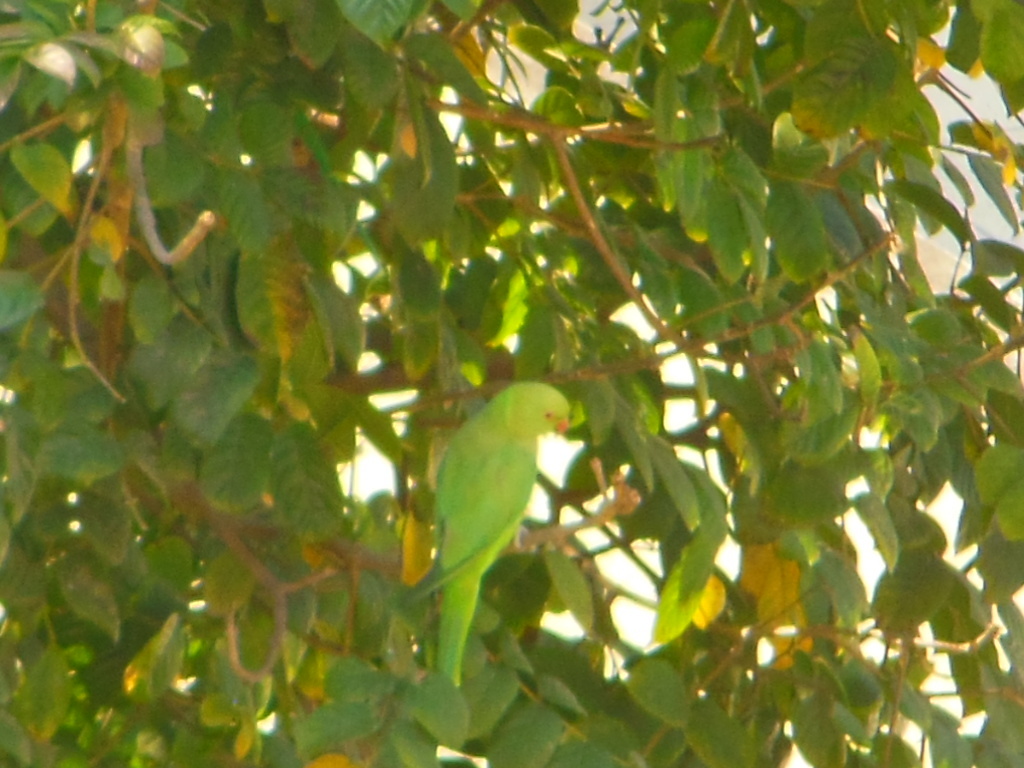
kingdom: Animalia
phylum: Chordata
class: Aves
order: Psittaciformes
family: Psittacidae
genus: Psittacula
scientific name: Psittacula krameri
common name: Rose-ringed parakeet
